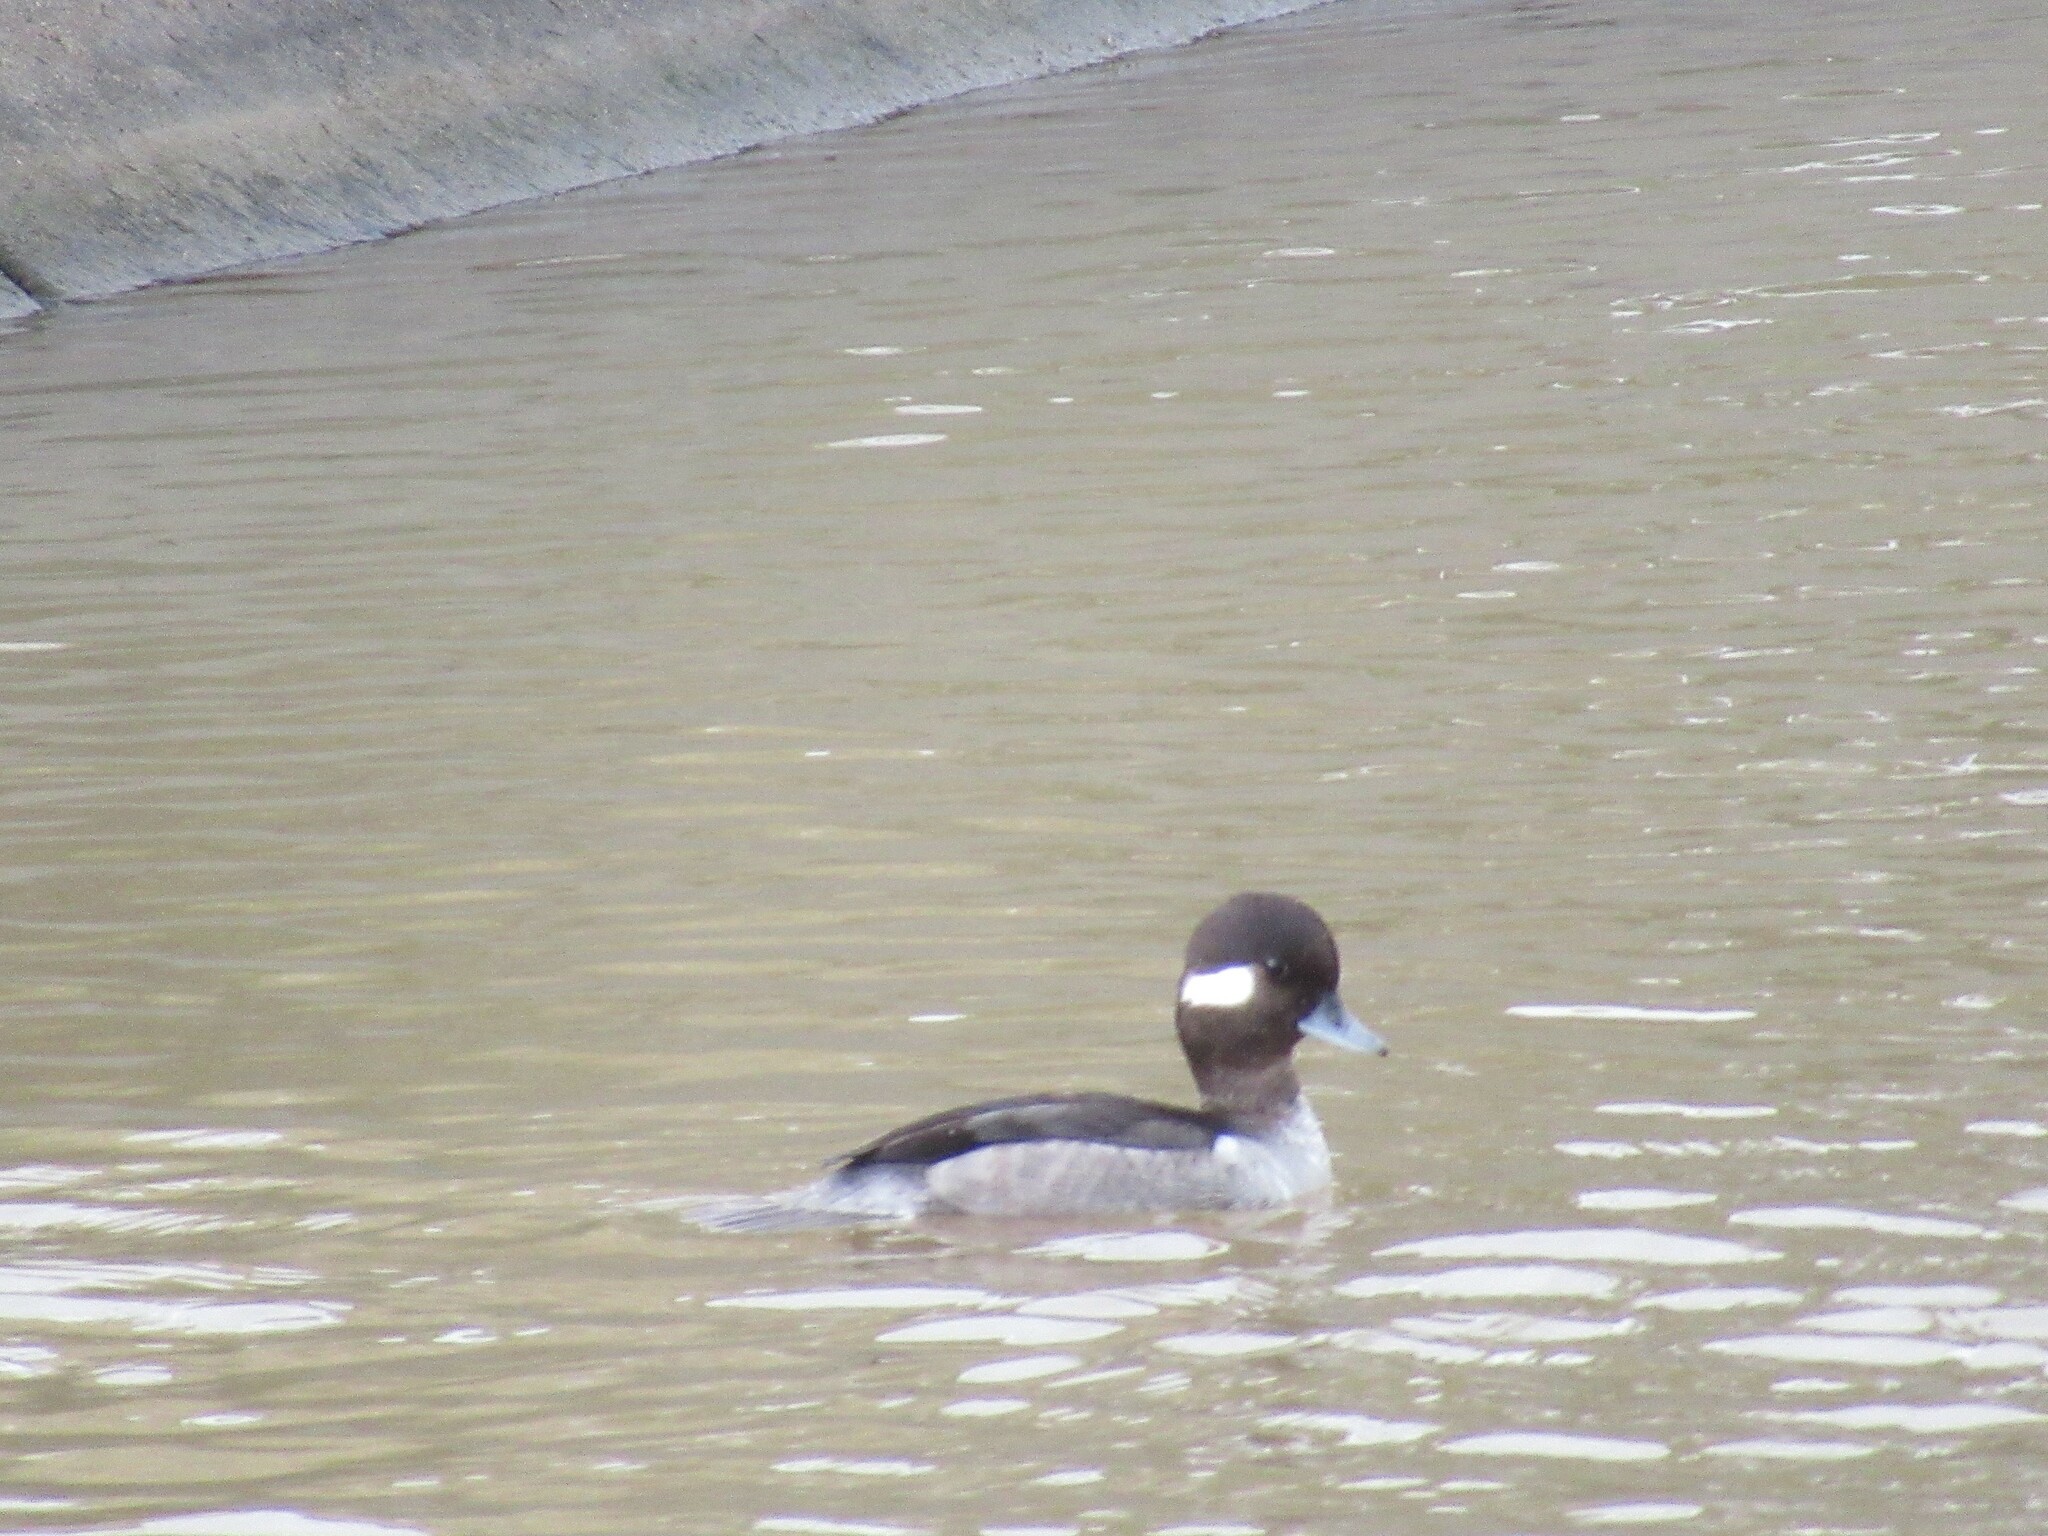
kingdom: Animalia
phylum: Chordata
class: Aves
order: Anseriformes
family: Anatidae
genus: Bucephala
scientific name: Bucephala albeola
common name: Bufflehead
